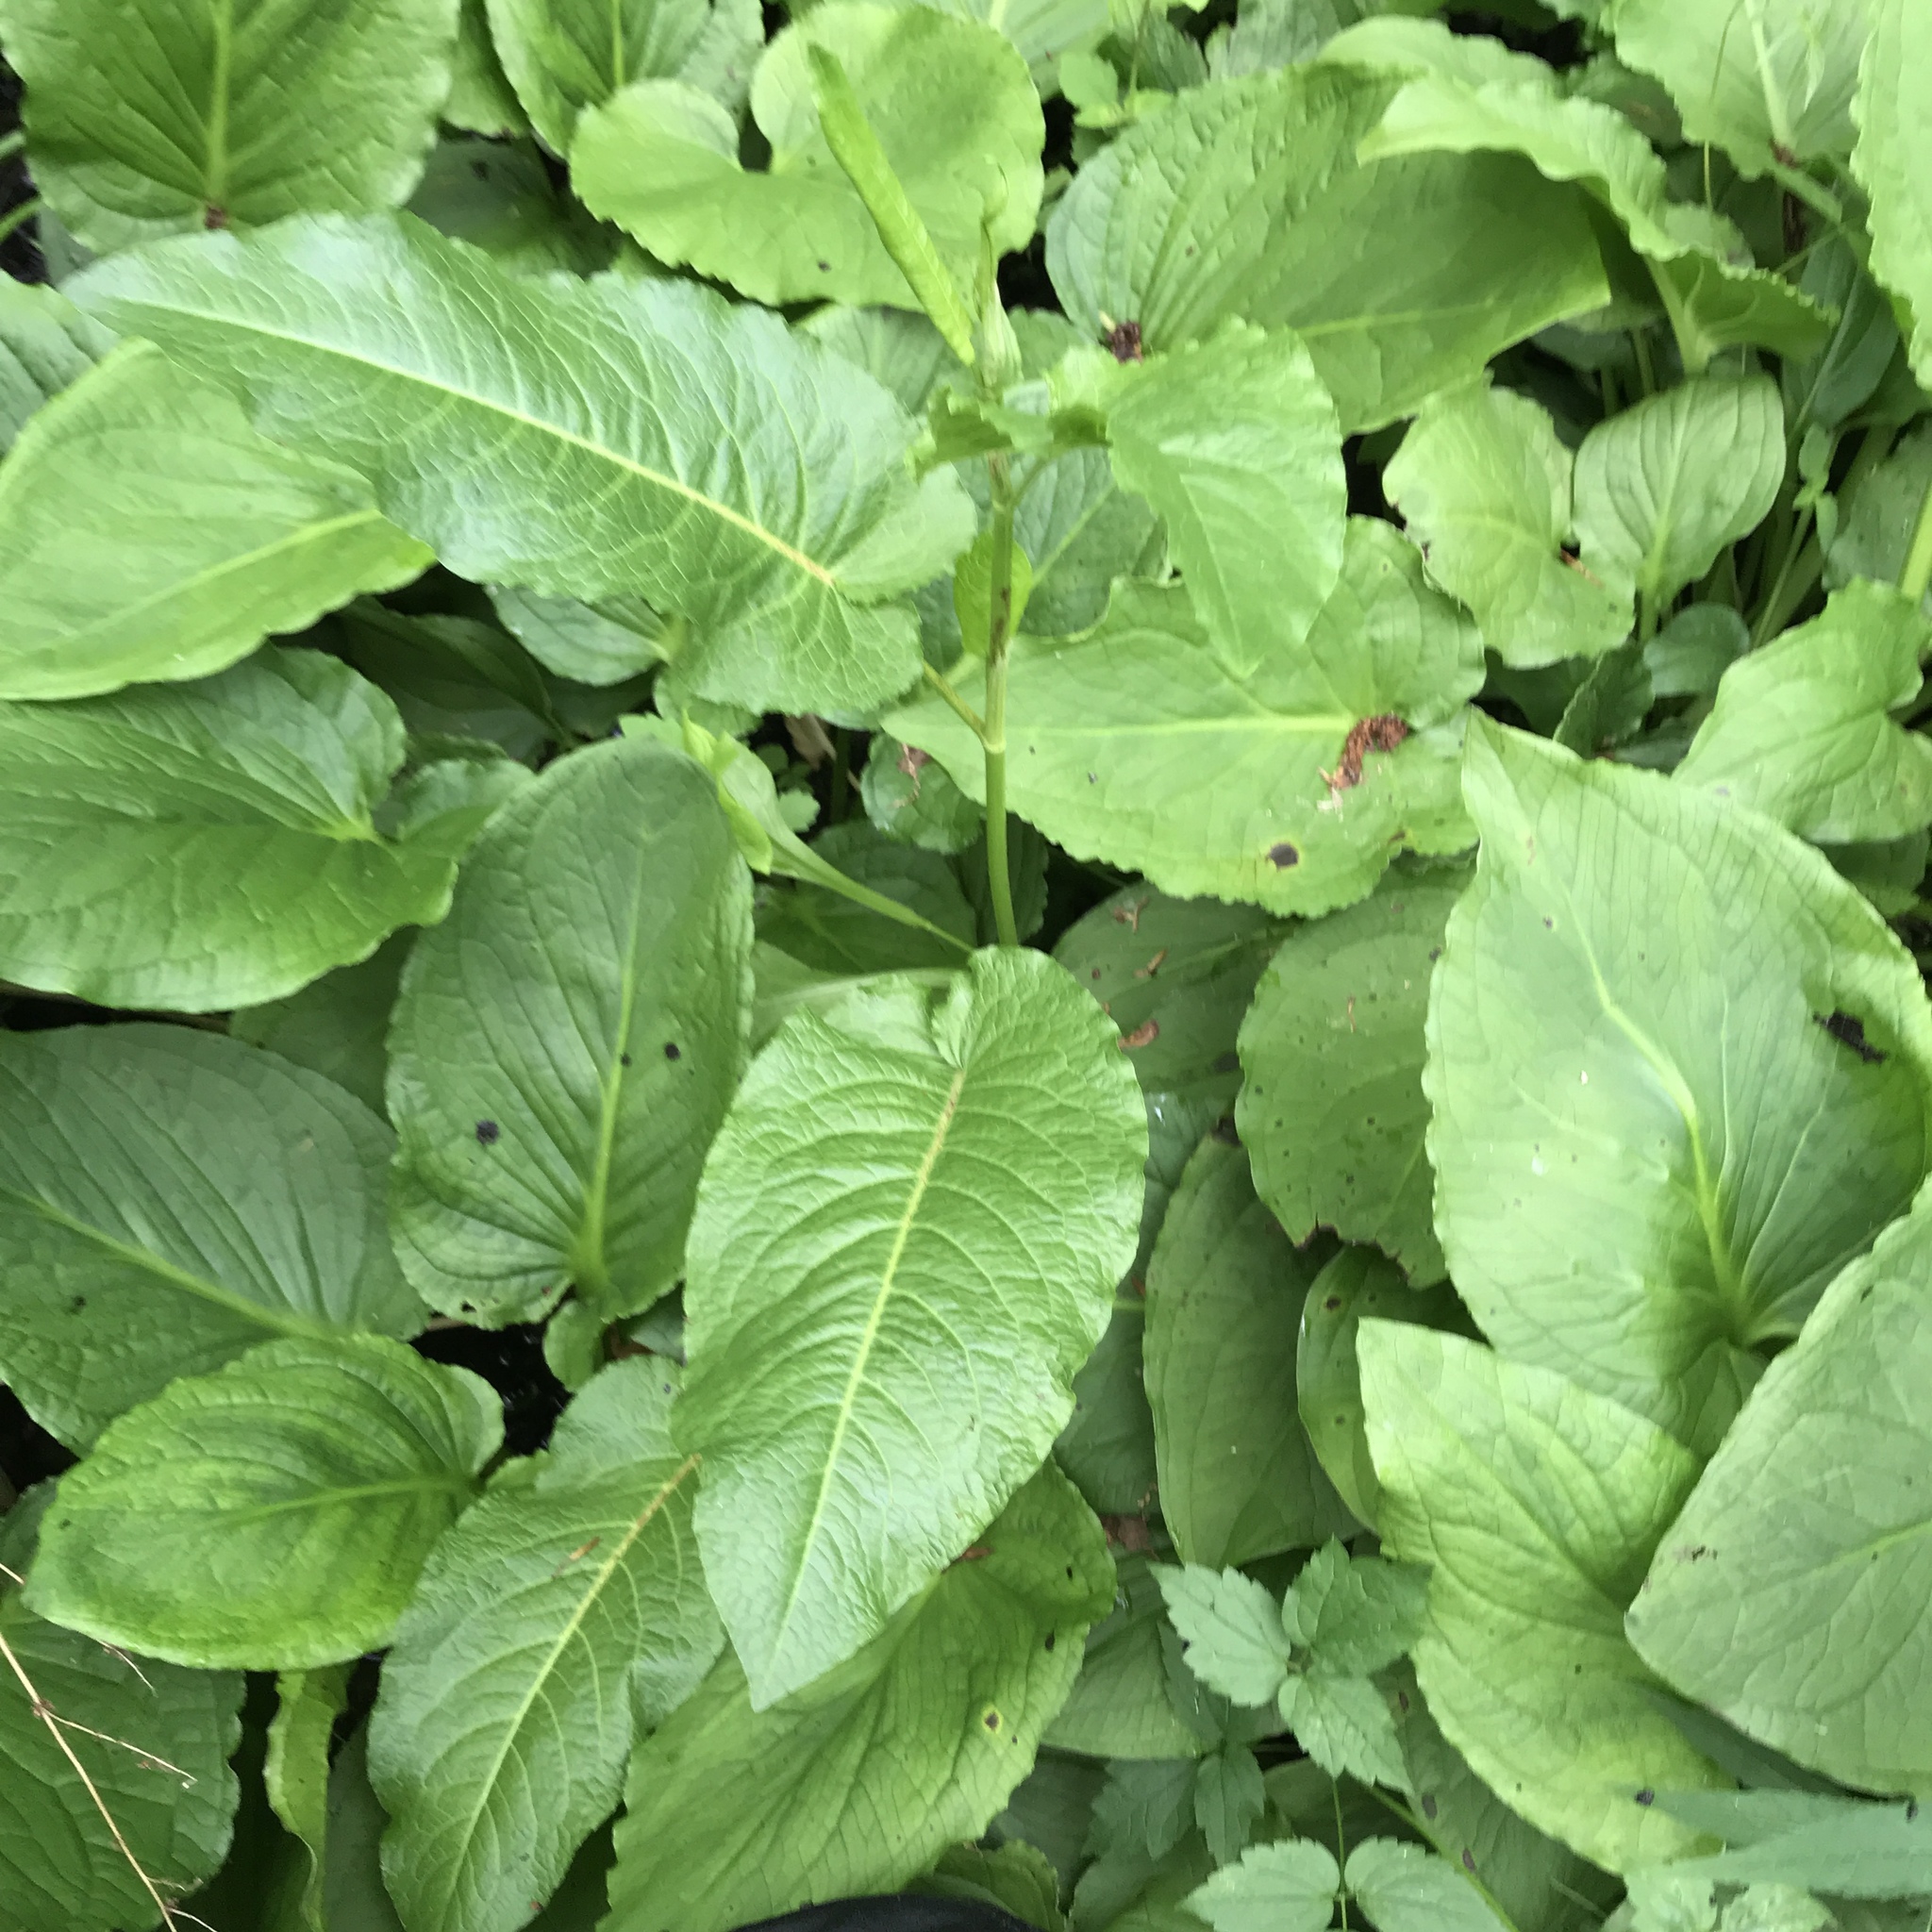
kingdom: Plantae
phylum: Tracheophyta
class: Magnoliopsida
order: Caryophyllales
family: Polygonaceae
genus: Rumex
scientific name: Rumex obtusifolius
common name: Bitter dock
